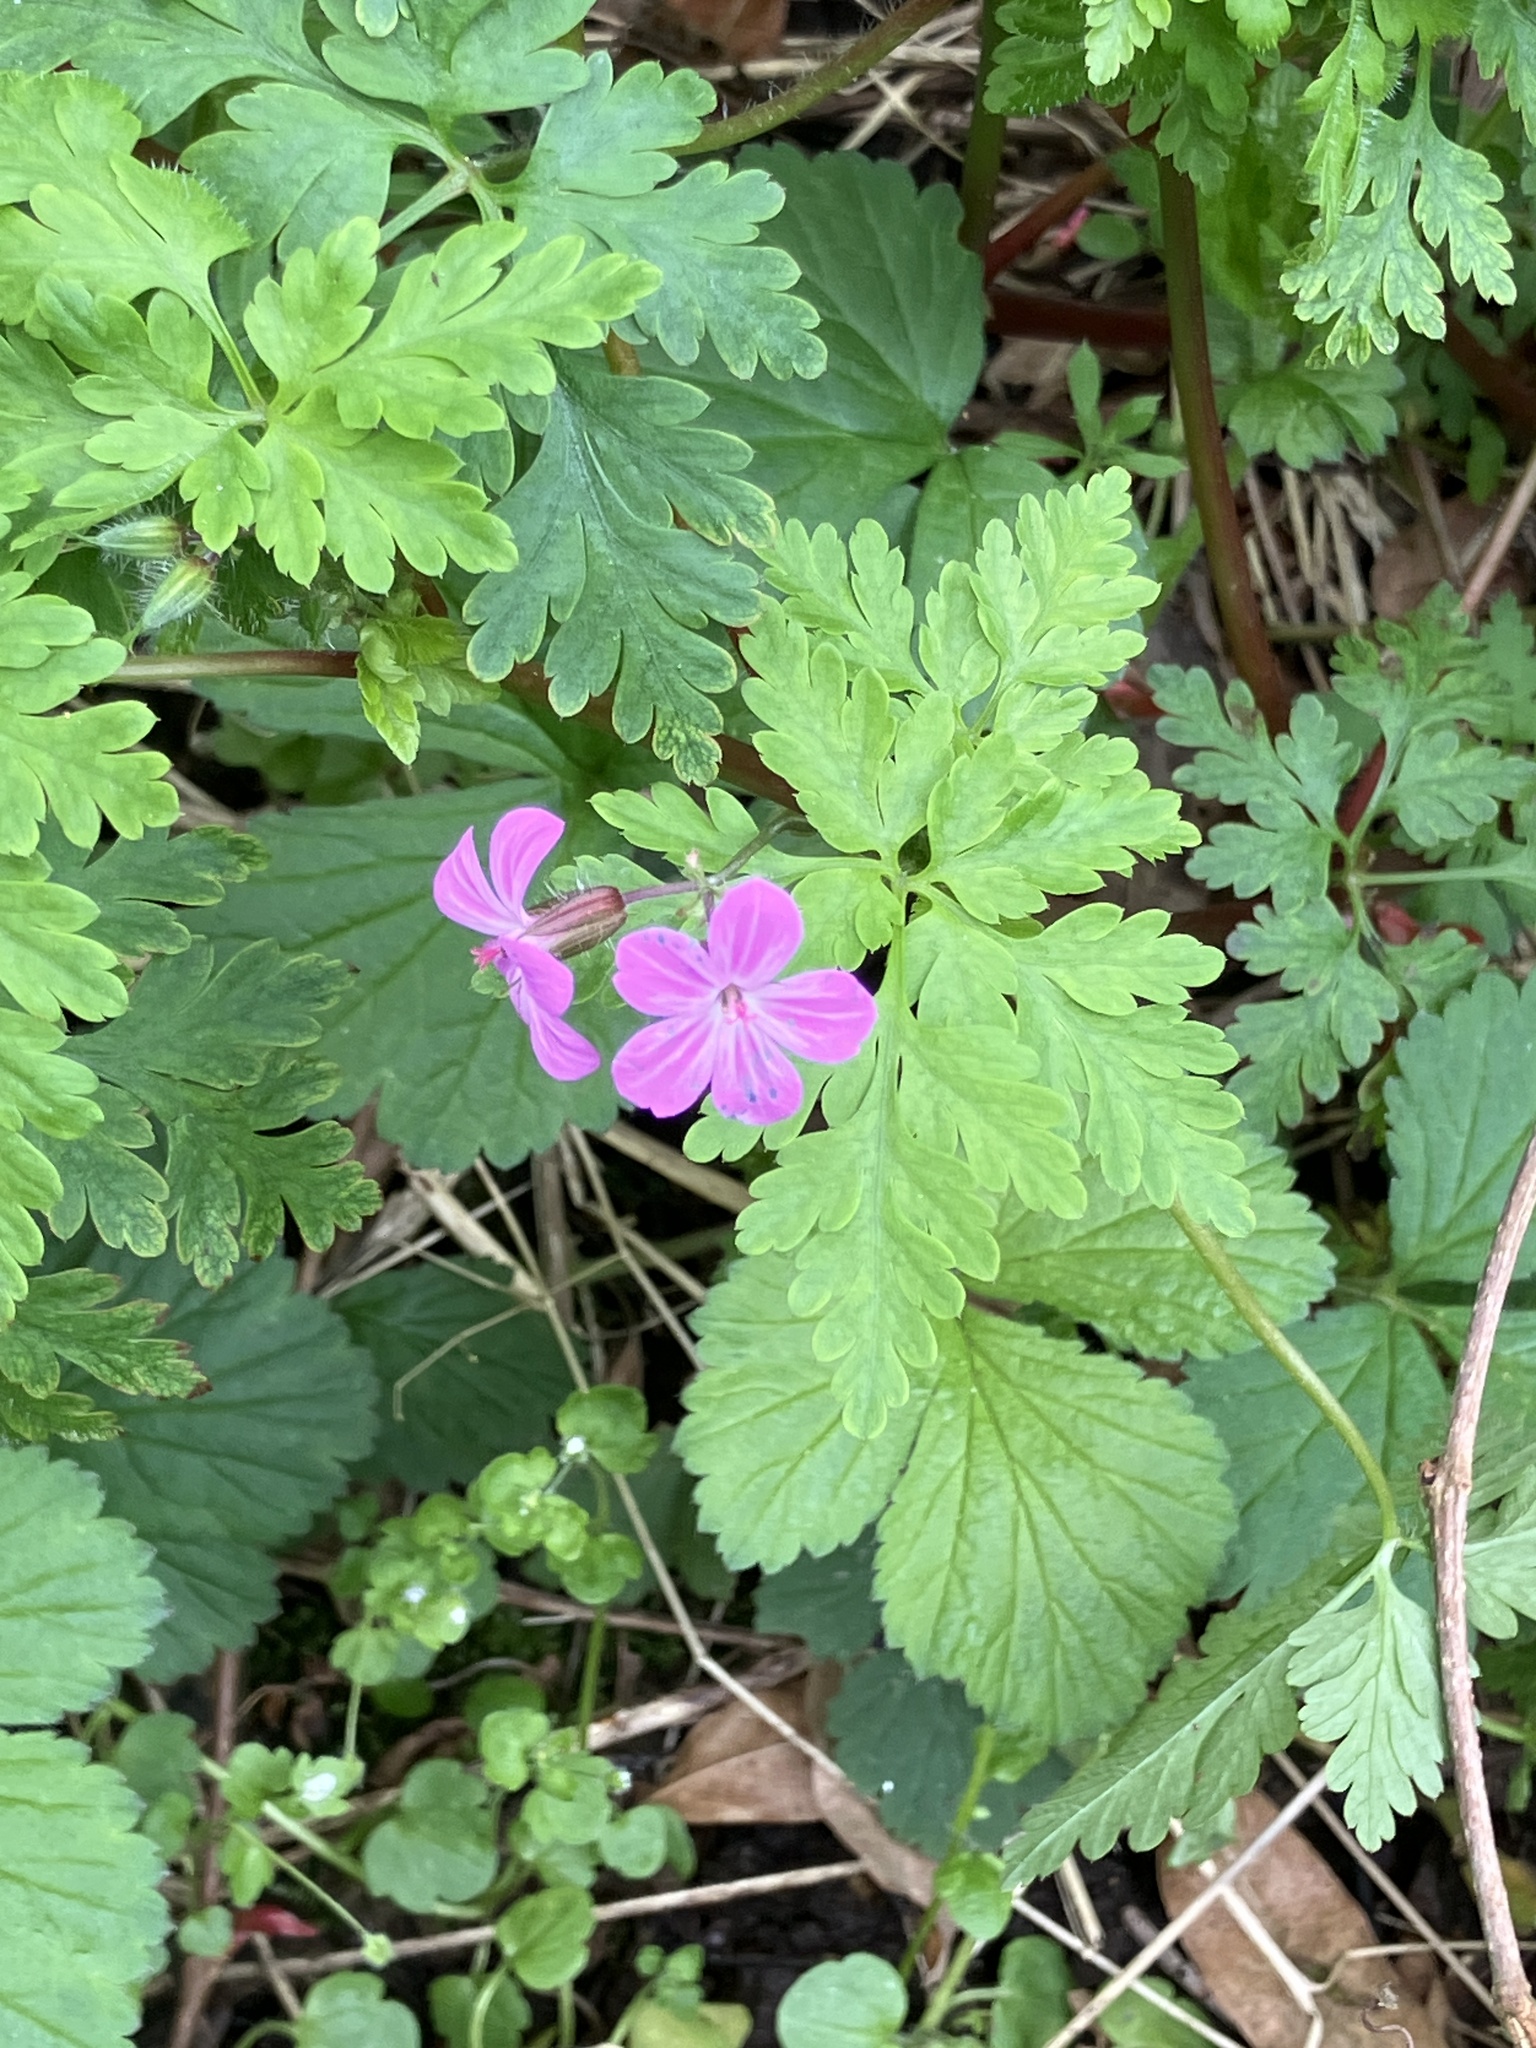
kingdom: Plantae
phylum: Tracheophyta
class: Magnoliopsida
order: Geraniales
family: Geraniaceae
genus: Geranium
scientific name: Geranium robertianum
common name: Herb-robert
